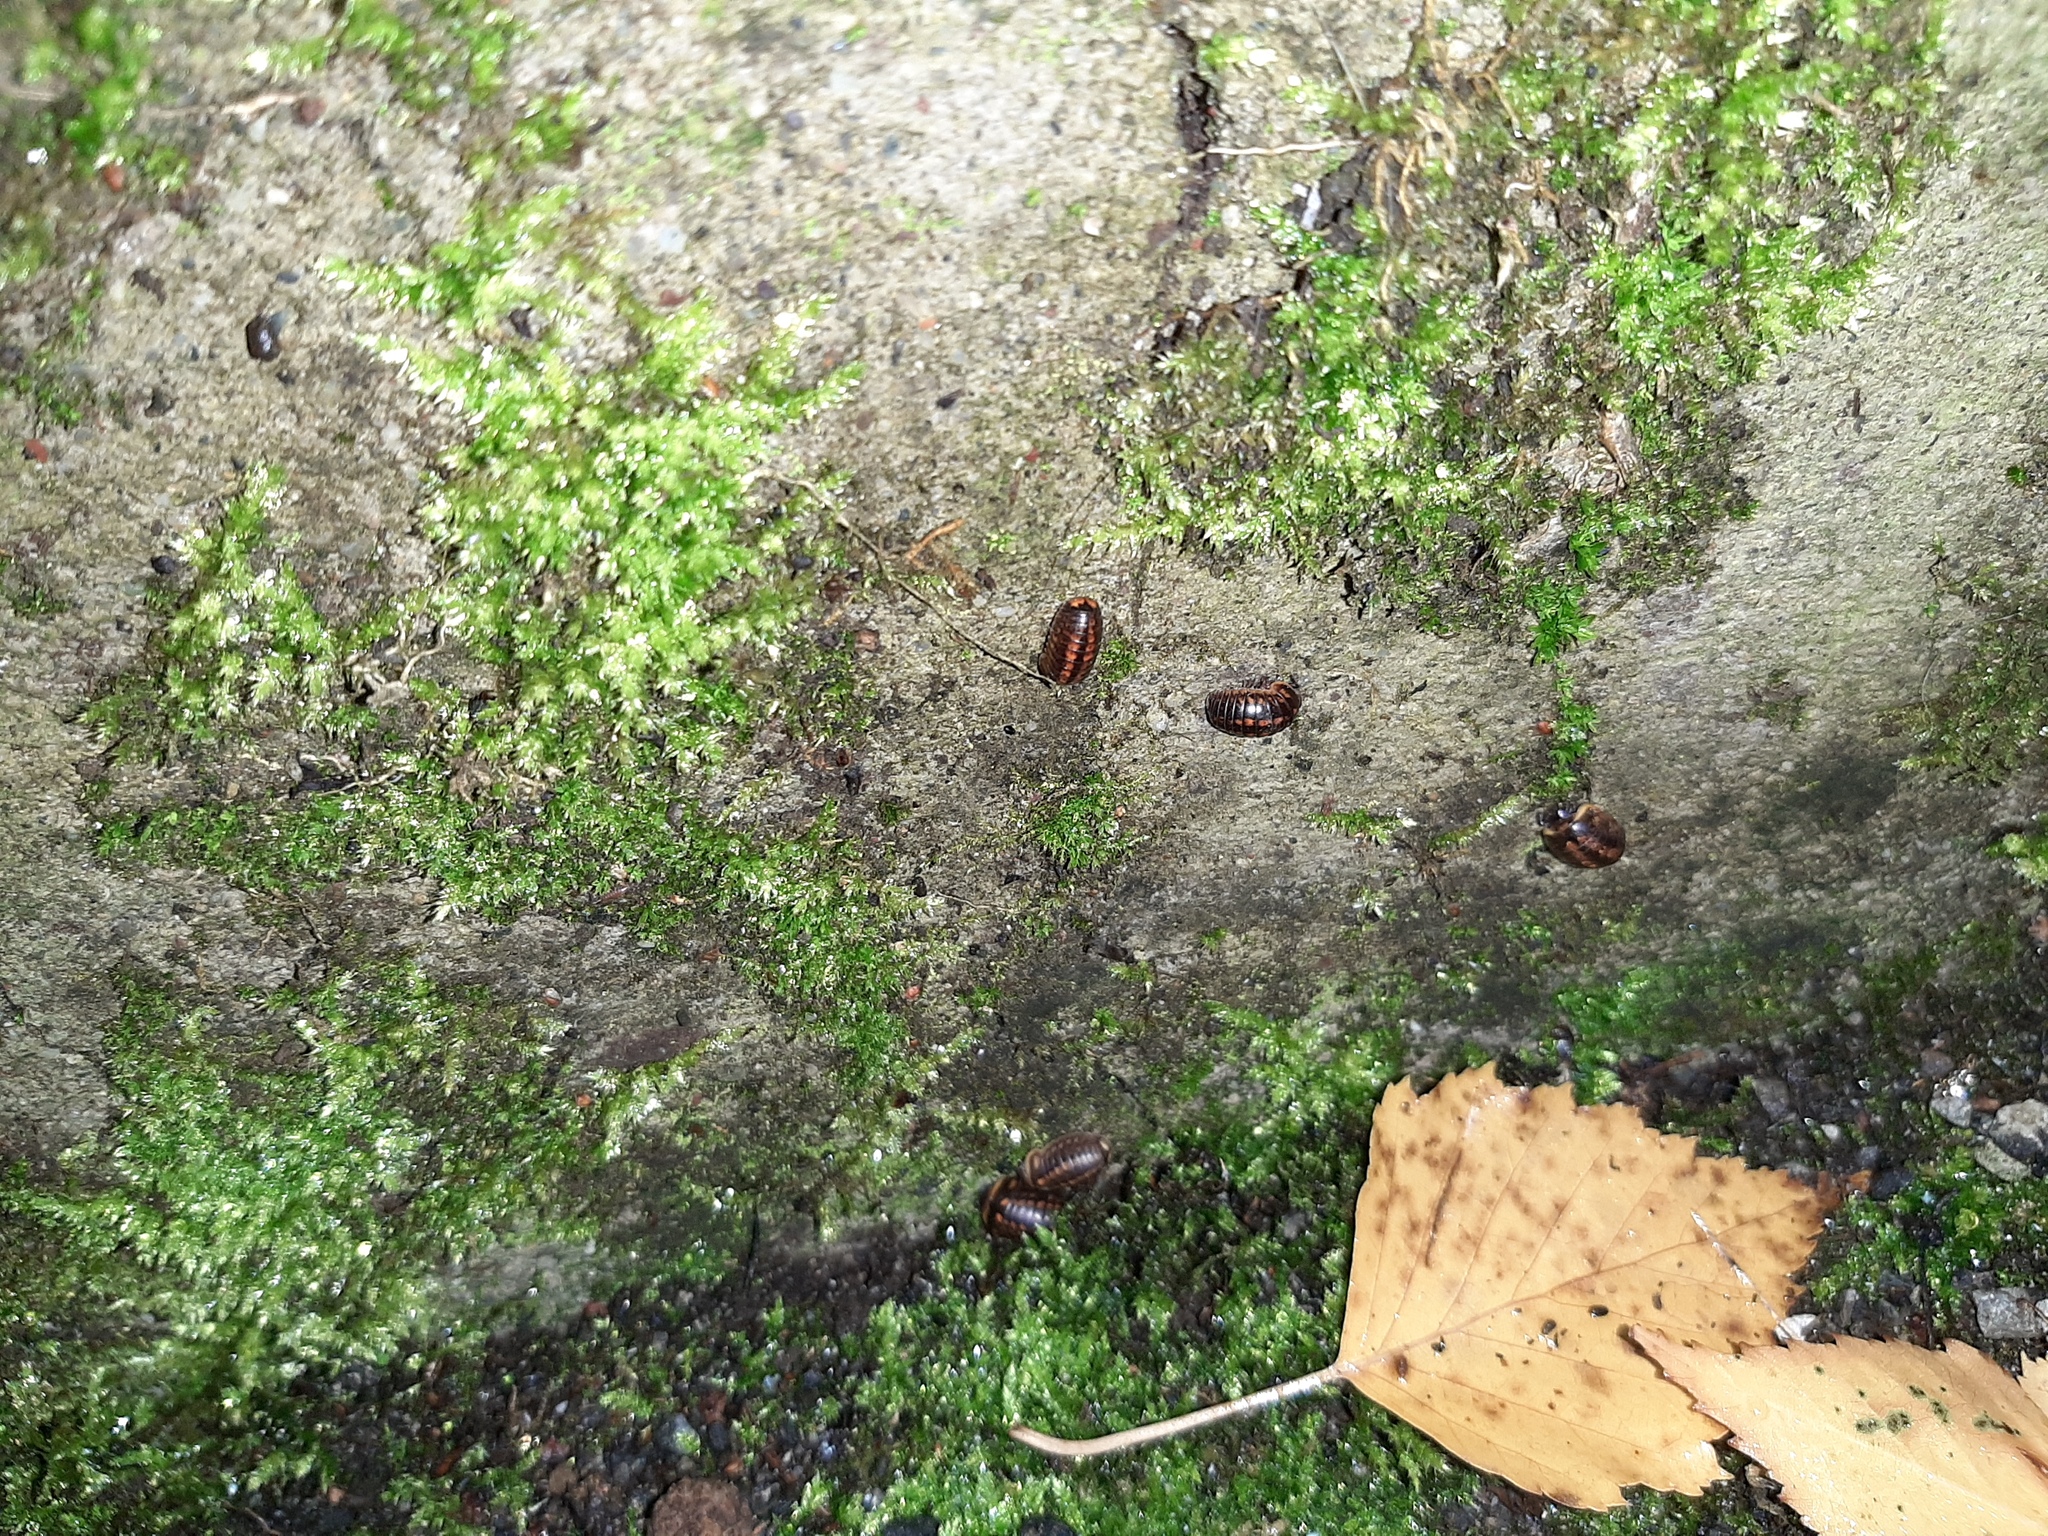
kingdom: Animalia
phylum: Arthropoda
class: Diplopoda
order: Glomerida
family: Glomeridae
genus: Glomeris
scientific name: Glomeris klugii
